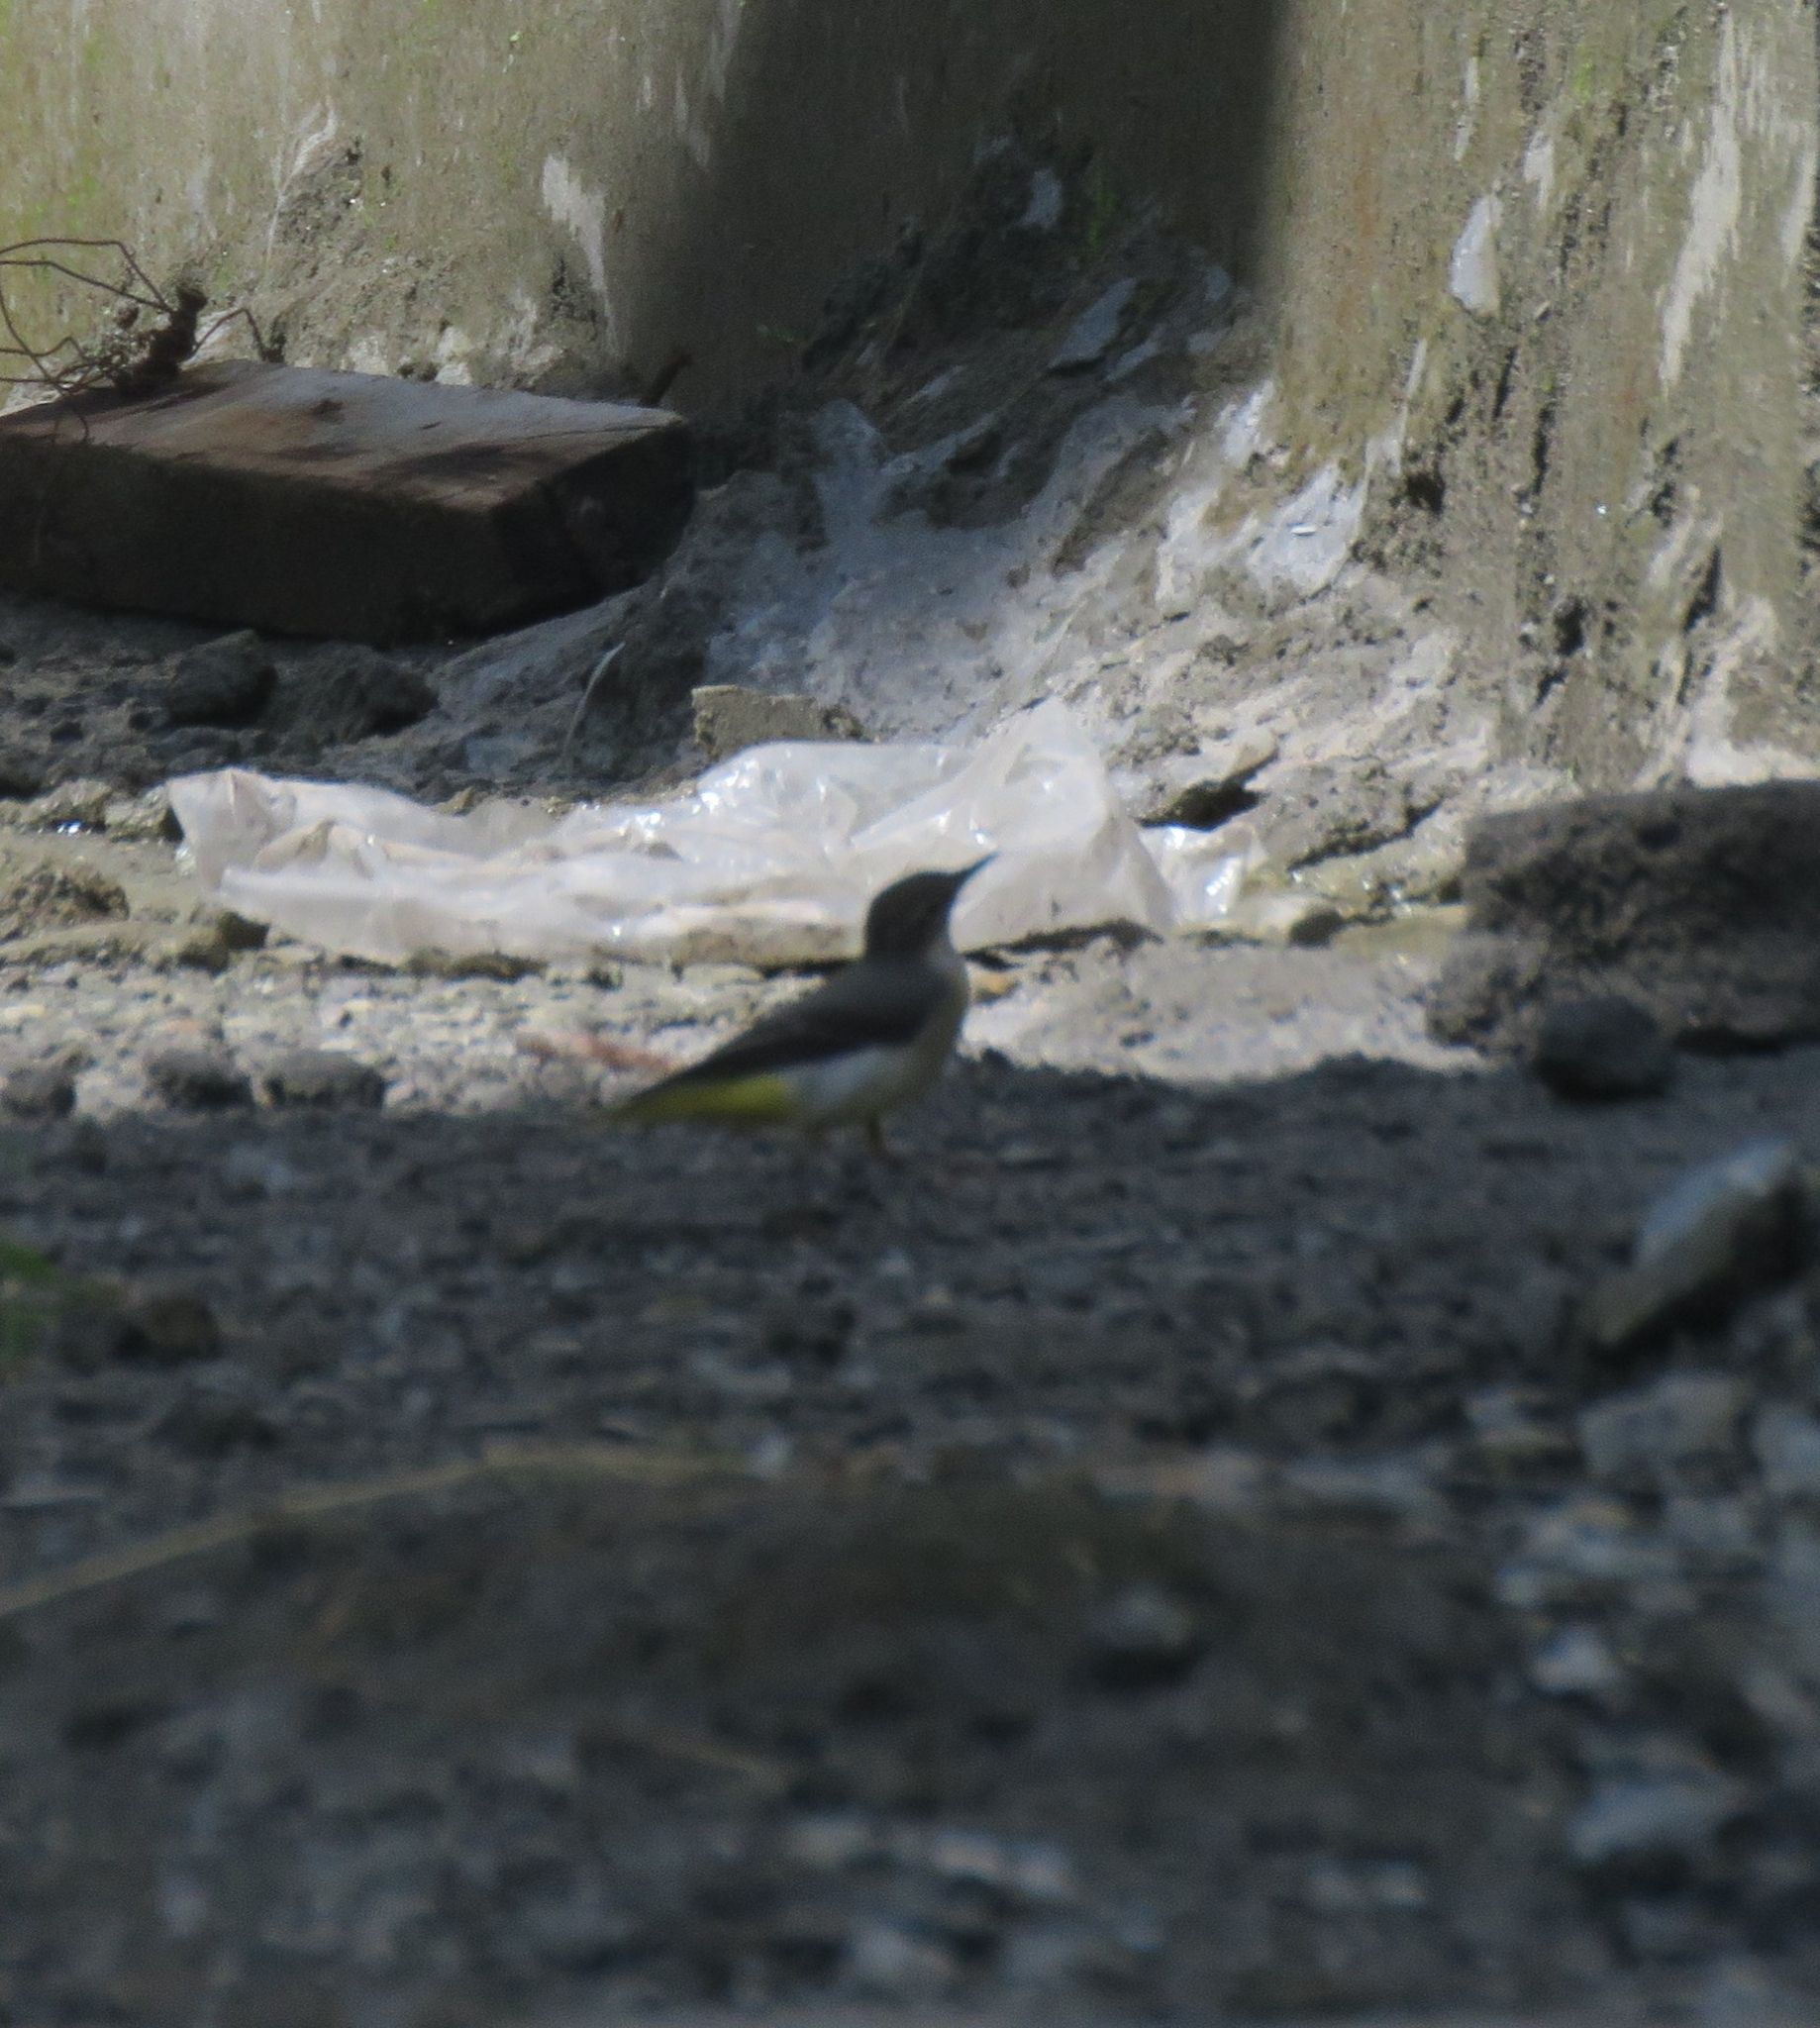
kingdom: Animalia
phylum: Chordata
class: Aves
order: Passeriformes
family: Motacillidae
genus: Motacilla
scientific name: Motacilla cinerea
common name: Grey wagtail
